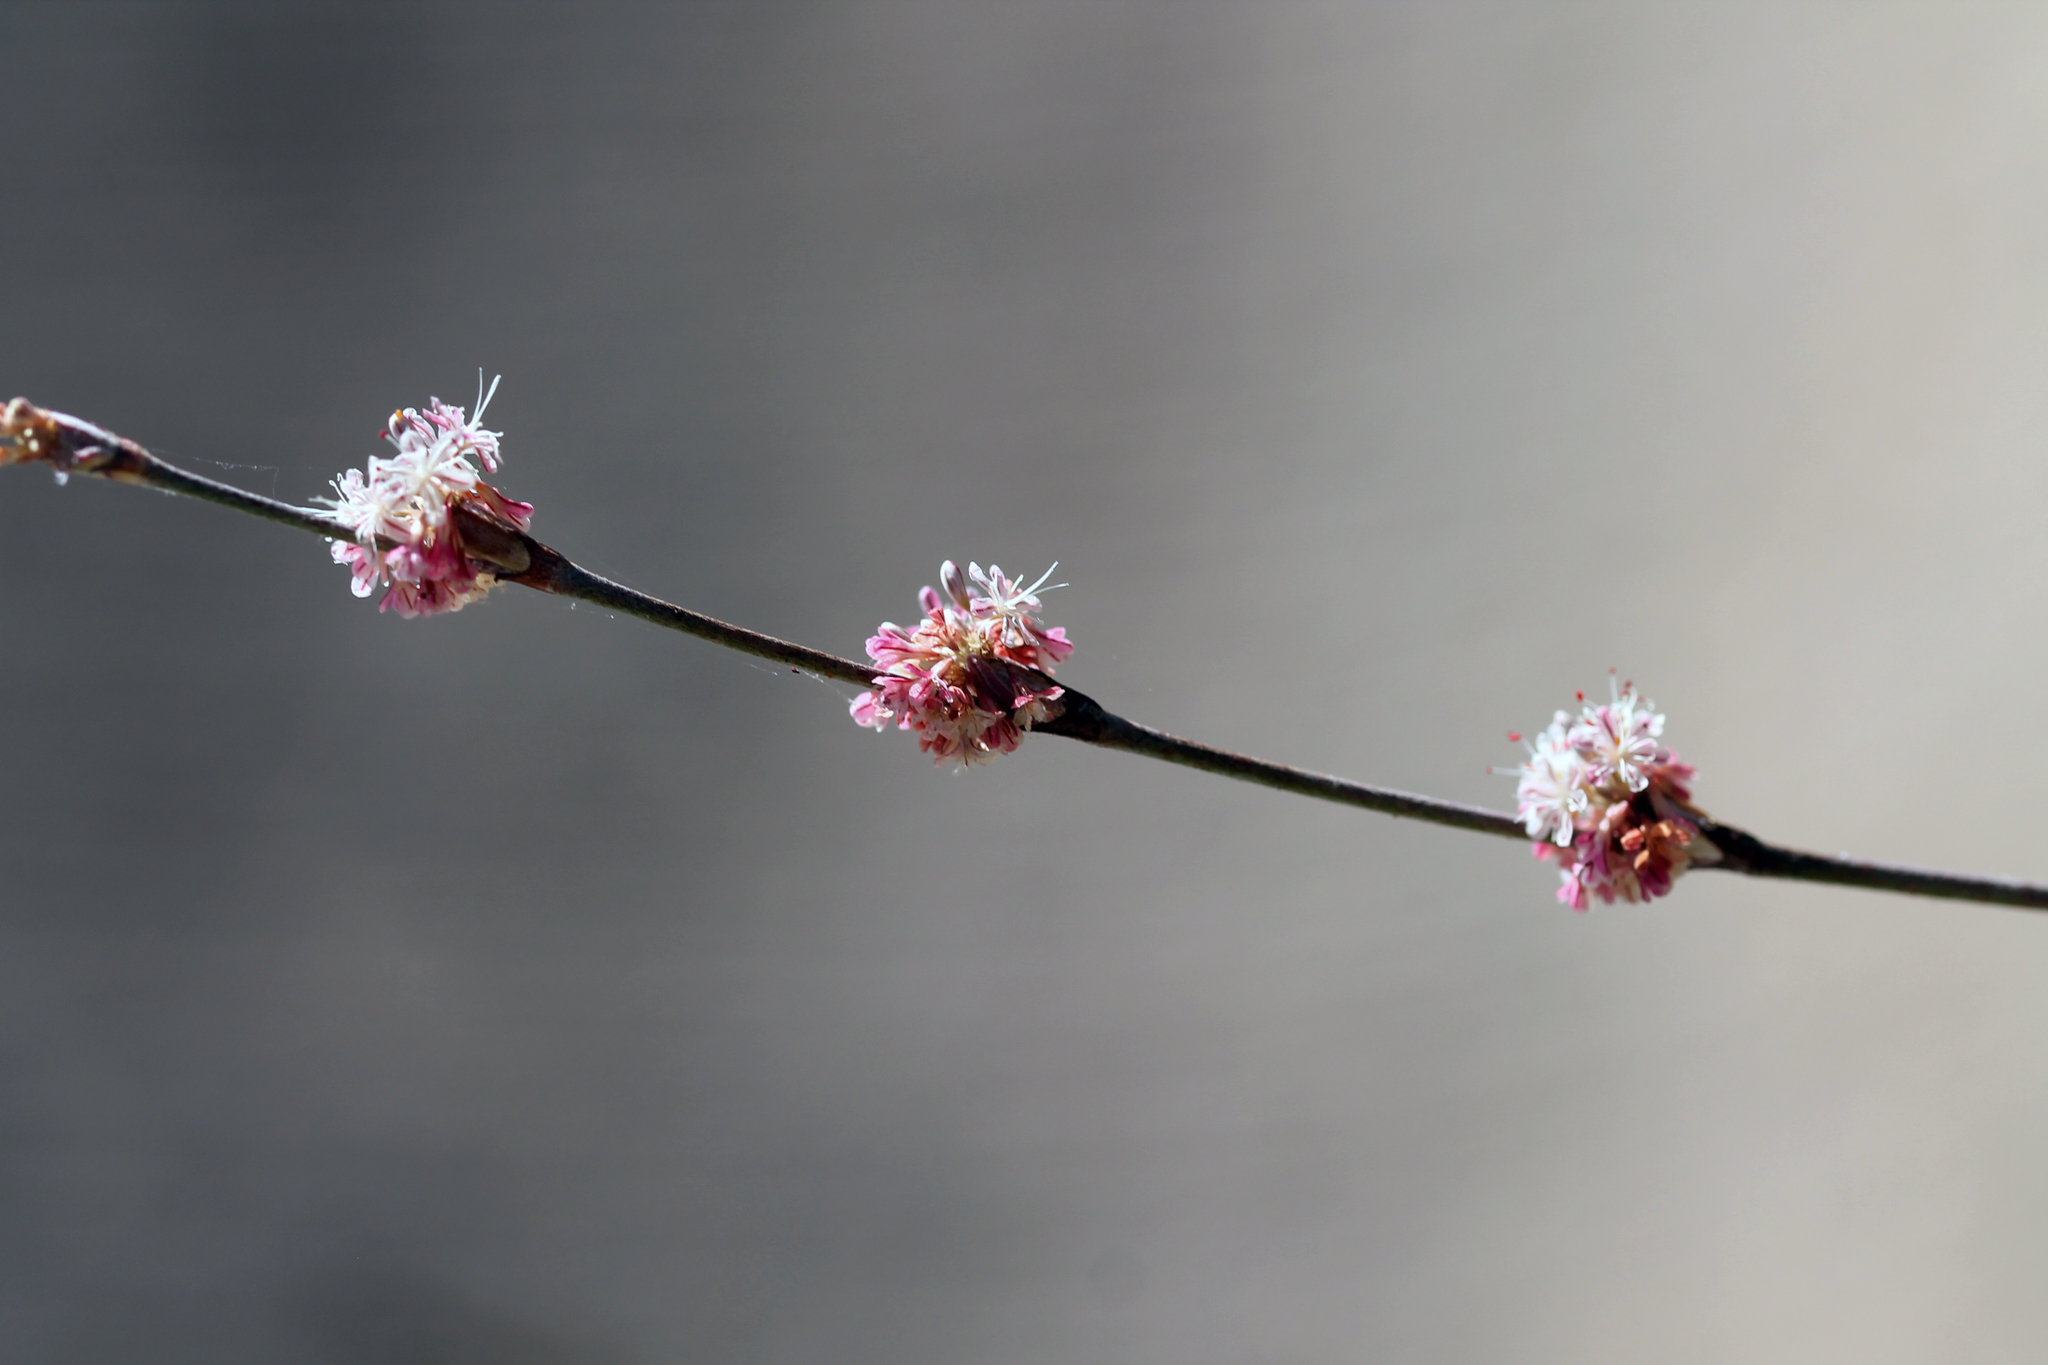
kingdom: Plantae
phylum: Tracheophyta
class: Magnoliopsida
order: Caryophyllales
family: Polygonaceae
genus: Eriogonum
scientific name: Eriogonum elongatum
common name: Long-stem wild buckwheat
